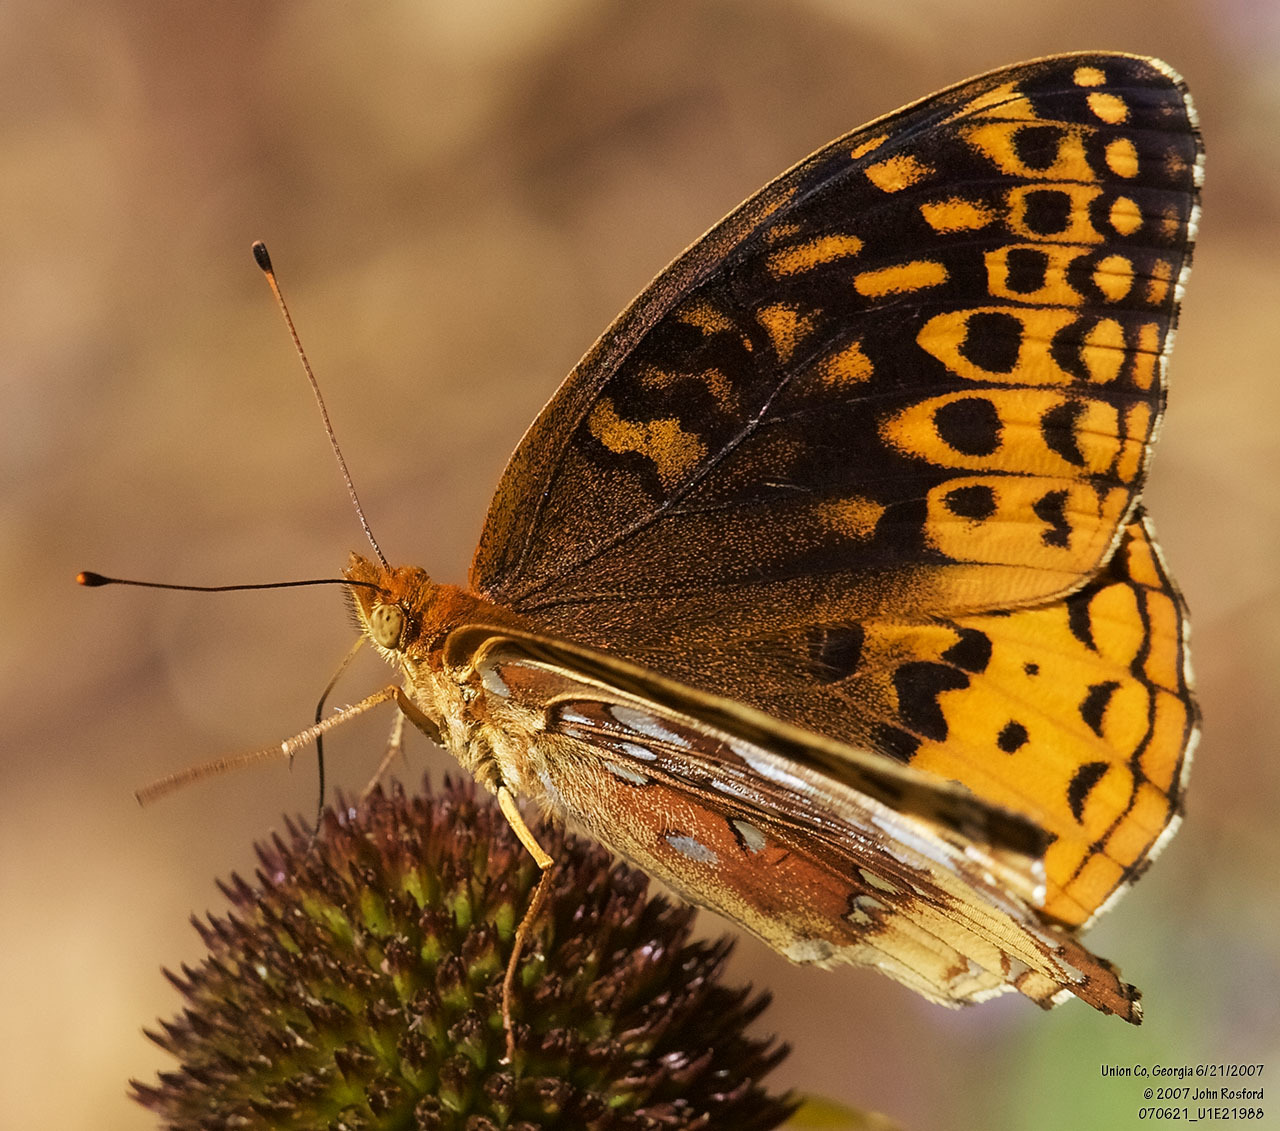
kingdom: Animalia
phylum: Arthropoda
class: Insecta
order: Lepidoptera
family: Nymphalidae
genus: Speyeria
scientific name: Speyeria cybele
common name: Great spangled fritillary
